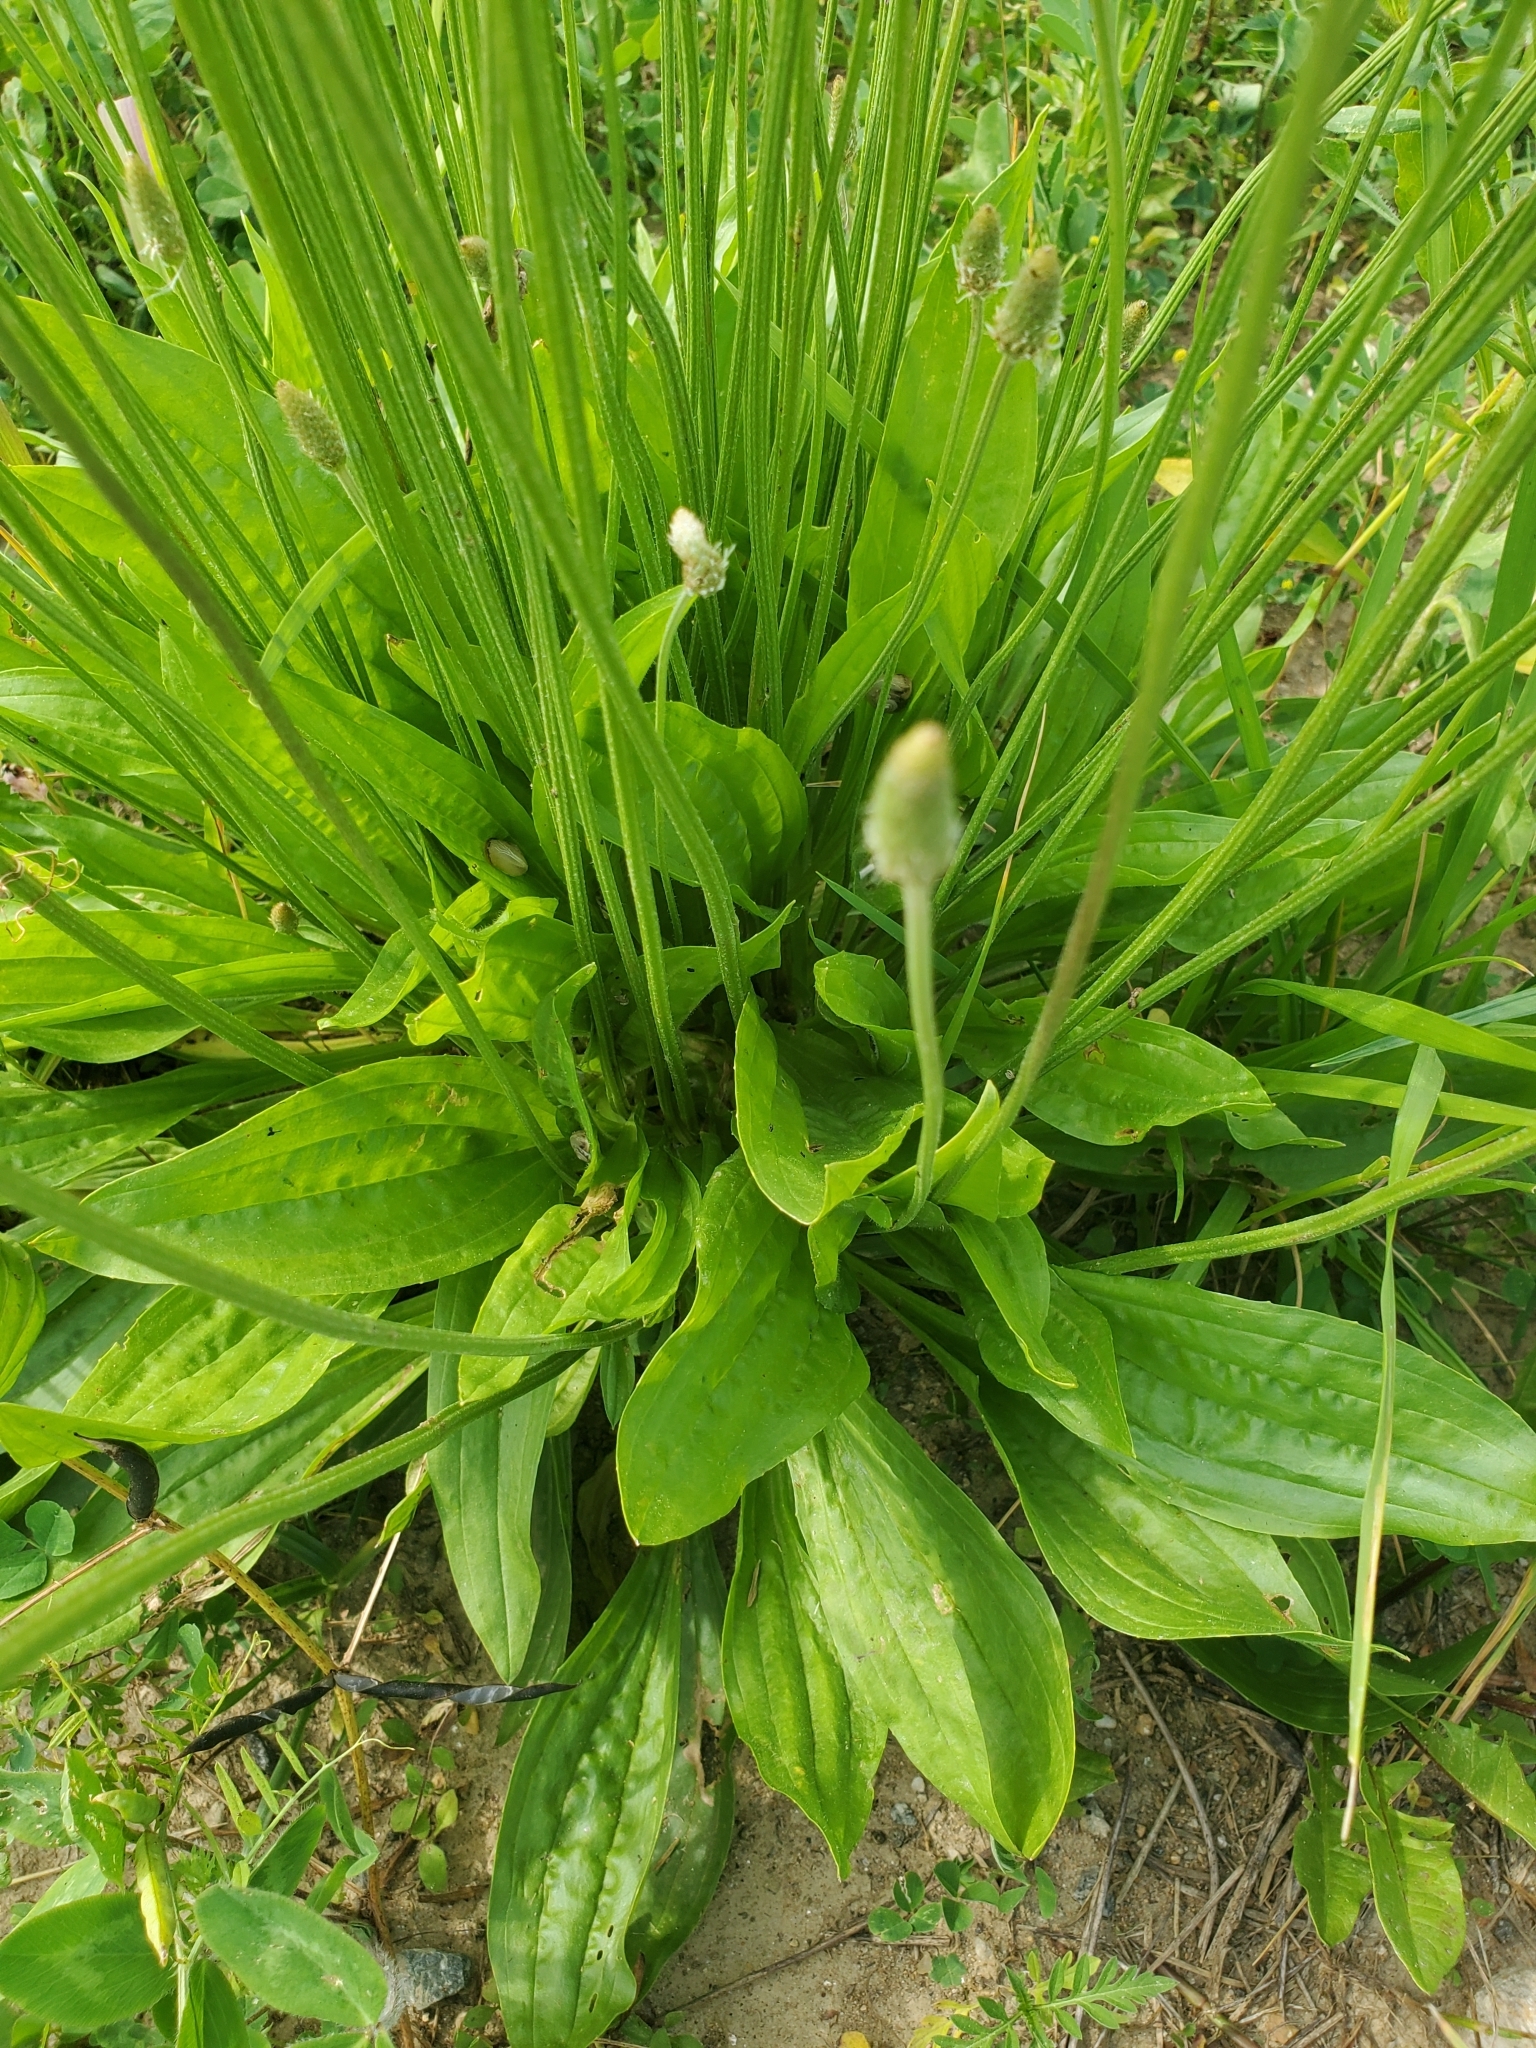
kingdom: Plantae
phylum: Tracheophyta
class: Magnoliopsida
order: Lamiales
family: Plantaginaceae
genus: Plantago
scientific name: Plantago lanceolata
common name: Ribwort plantain
